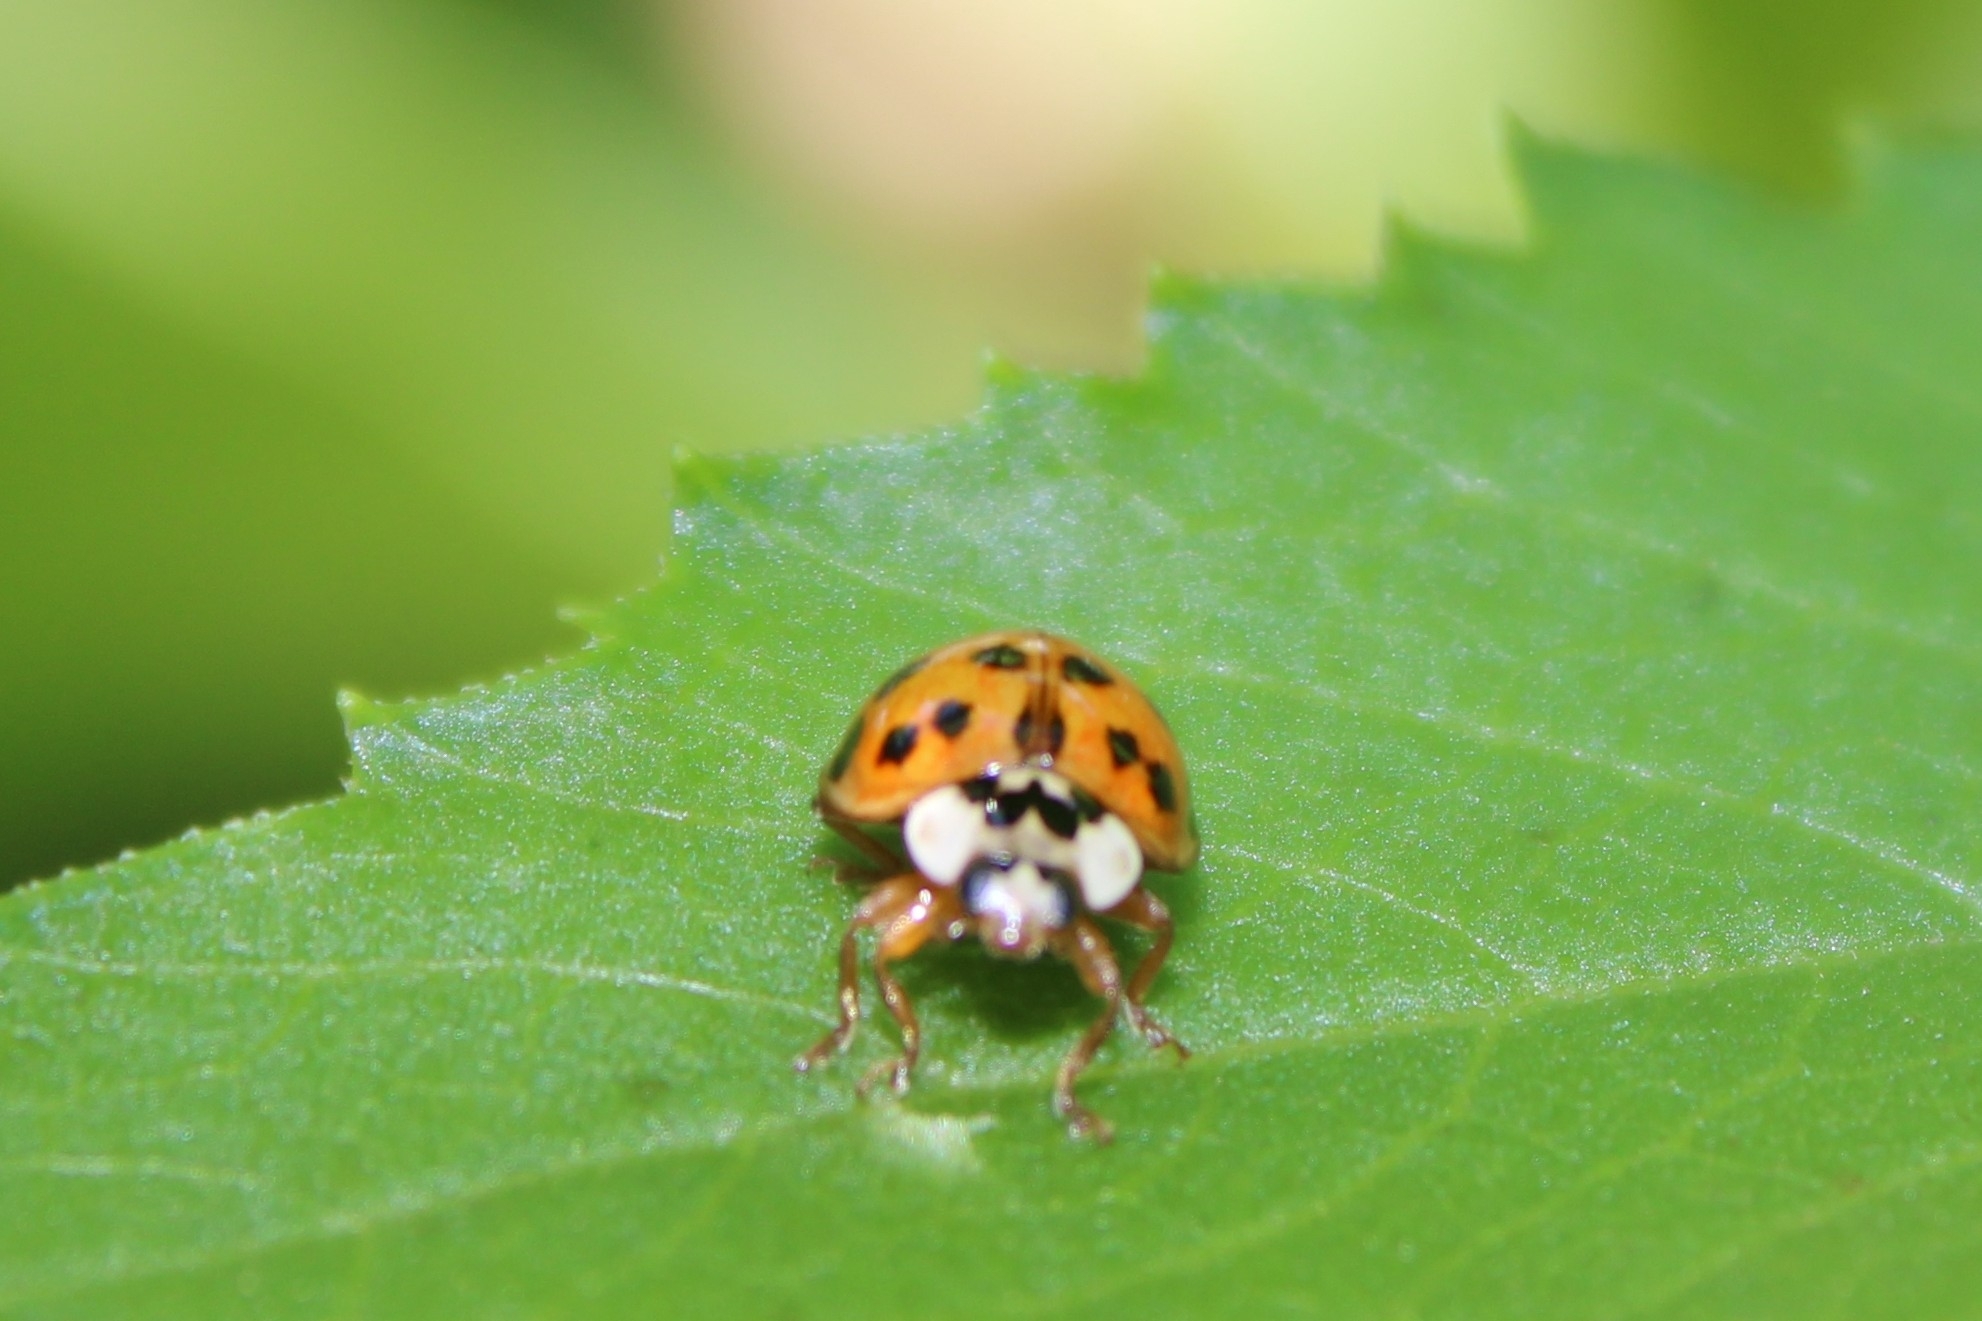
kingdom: Animalia
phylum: Arthropoda
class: Insecta
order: Coleoptera
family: Coccinellidae
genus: Harmonia
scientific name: Harmonia axyridis
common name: Harlequin ladybird
